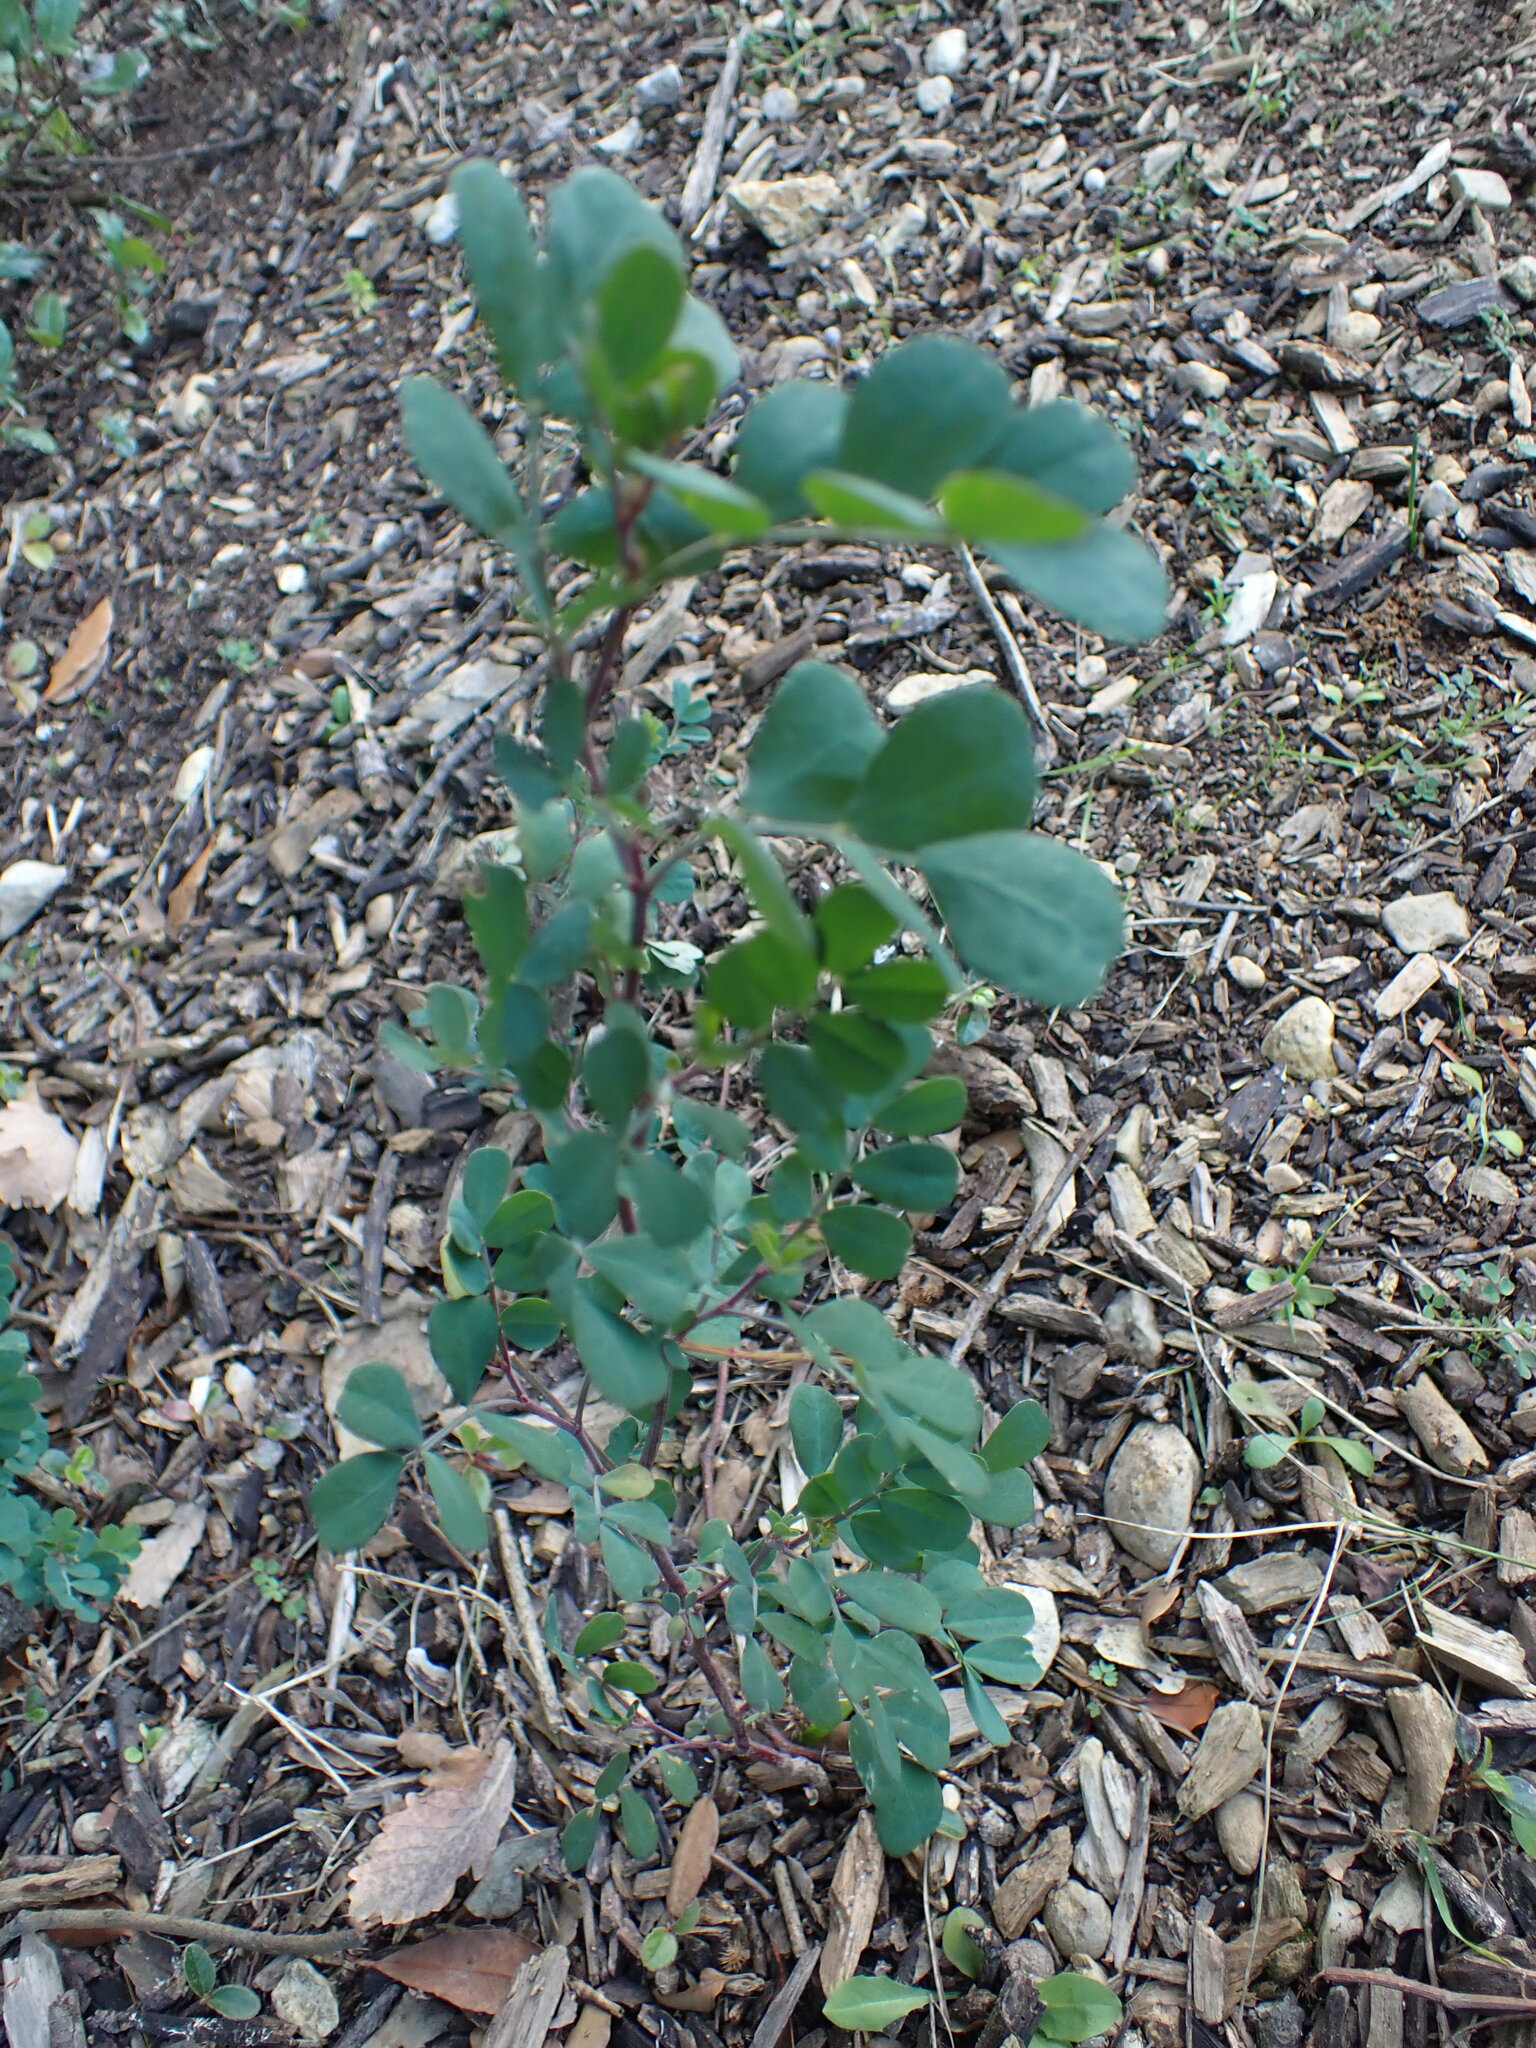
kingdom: Plantae
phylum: Tracheophyta
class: Magnoliopsida
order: Fabales
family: Fabaceae
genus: Coronilla
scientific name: Coronilla valentina
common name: Shrubby scorpion-vetch
